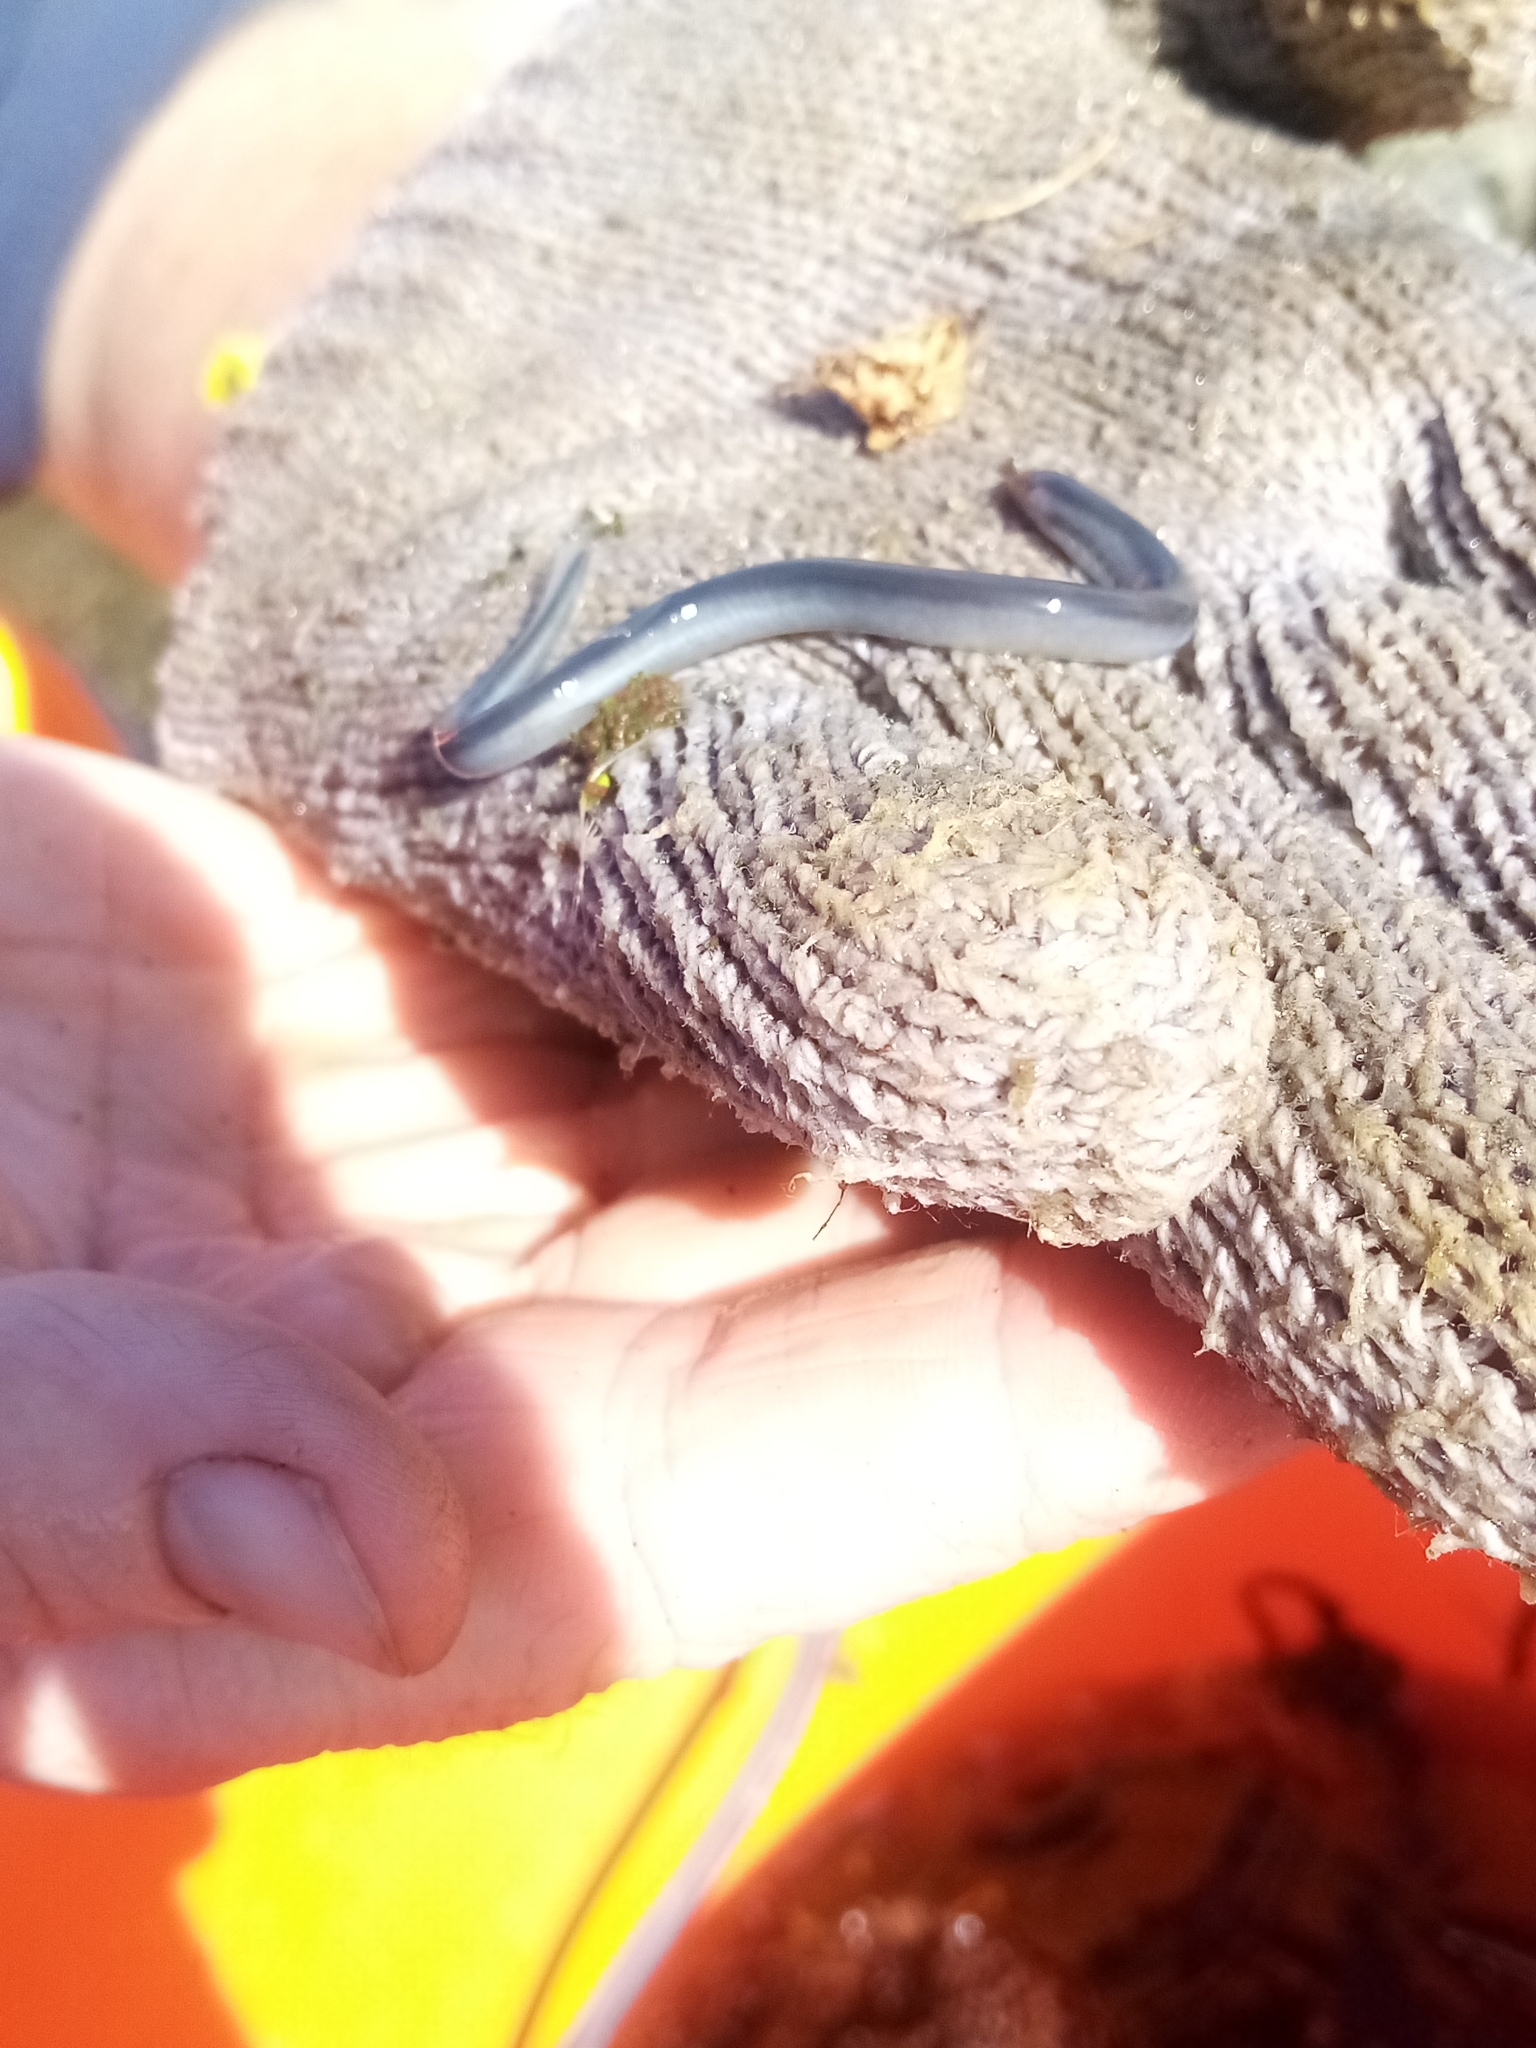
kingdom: Animalia
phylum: Chordata
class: Petromyzonti
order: Petromyzontiformes
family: Geotriidae
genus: Geotria
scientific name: Geotria australis
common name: Pouched lamprey
